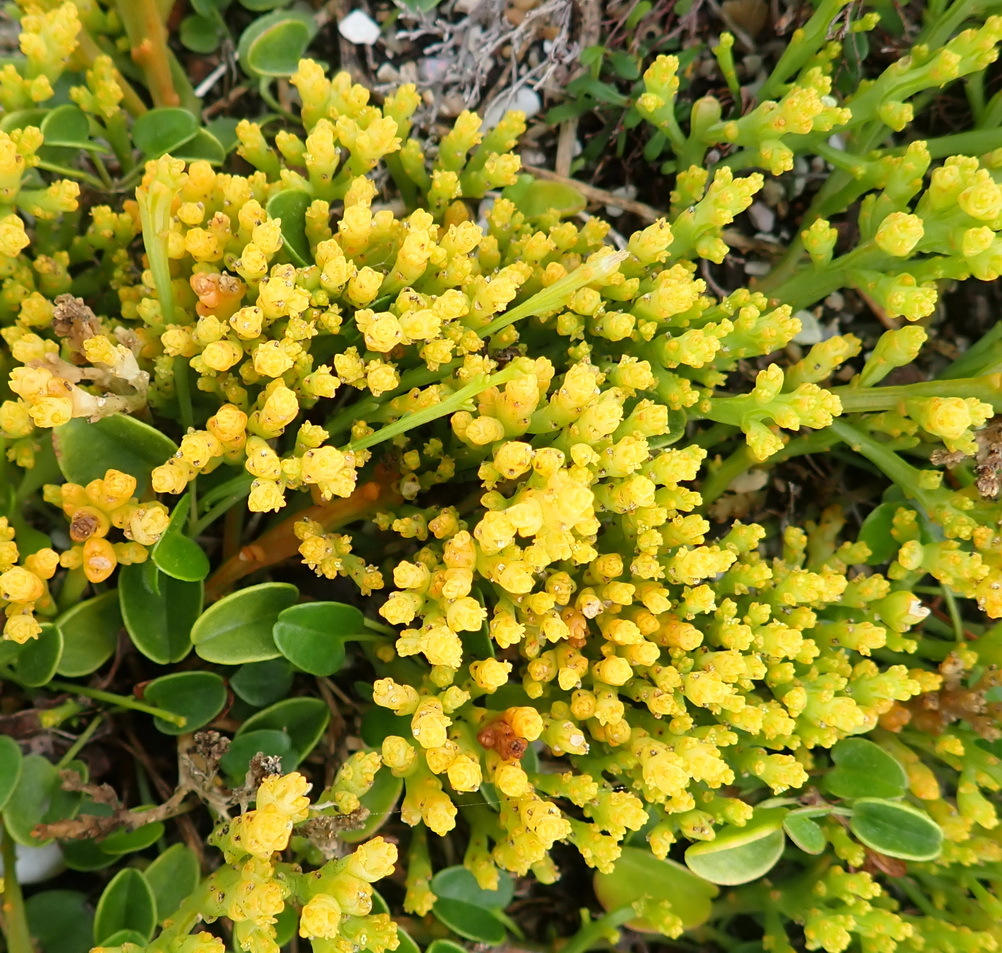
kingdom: Plantae
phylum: Tracheophyta
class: Magnoliopsida
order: Santalales
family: Thesiaceae
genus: Thesium
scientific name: Thesium fragile
